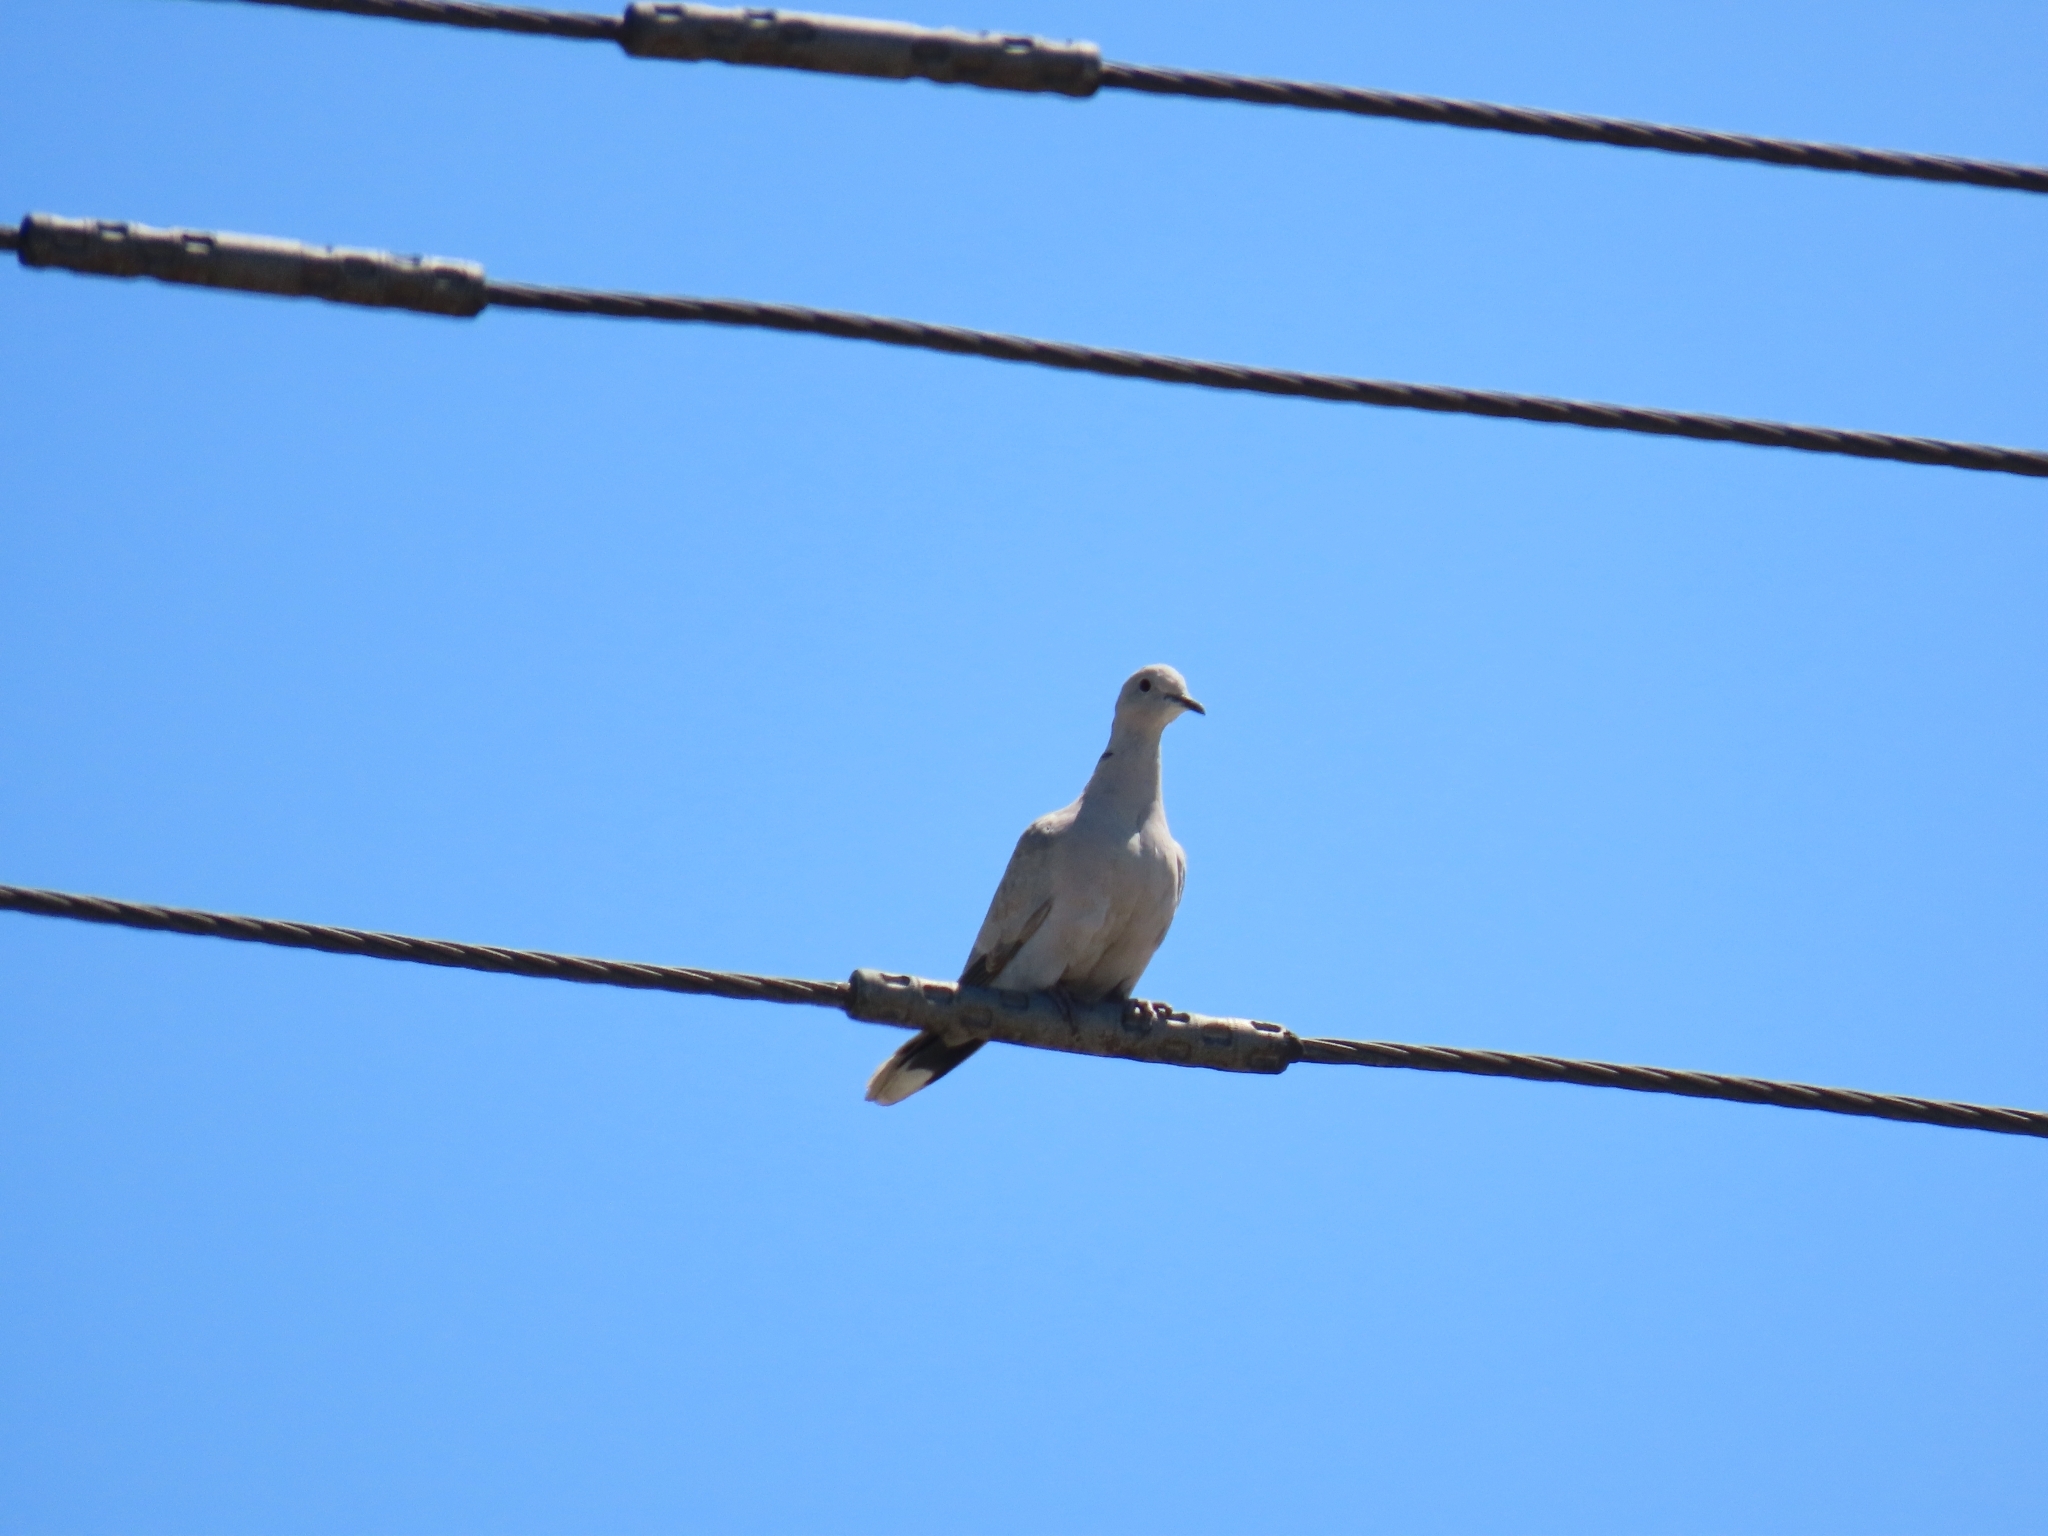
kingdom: Animalia
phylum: Chordata
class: Aves
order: Columbiformes
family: Columbidae
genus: Streptopelia
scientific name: Streptopelia decaocto
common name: Eurasian collared dove
